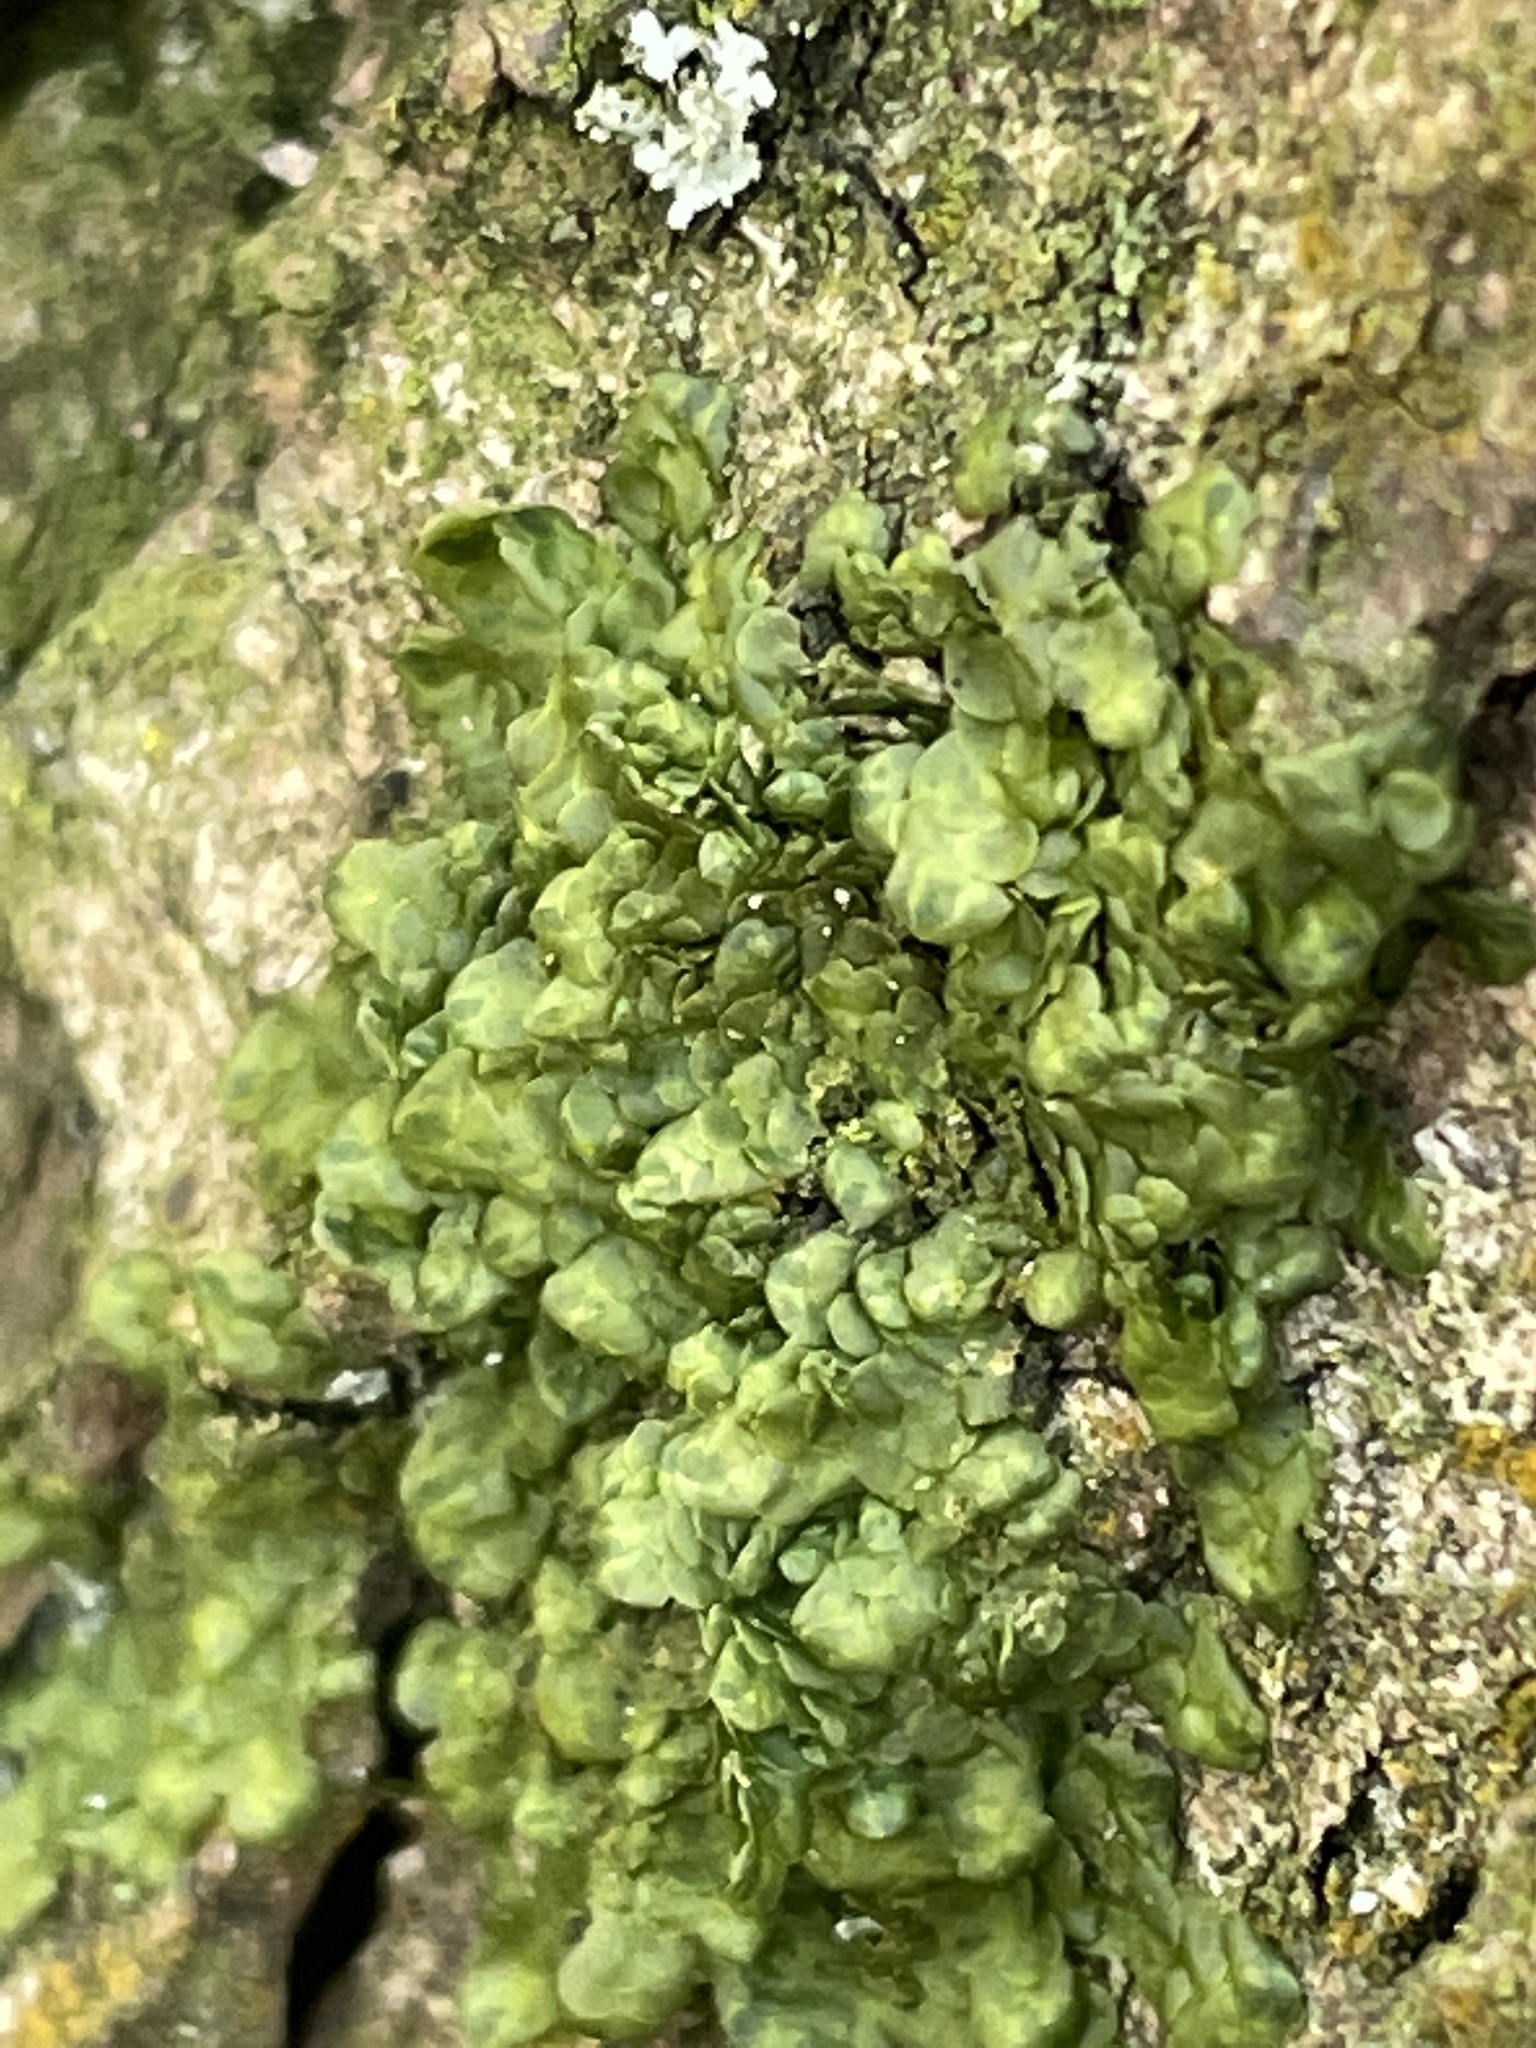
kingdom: Plantae
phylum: Marchantiophyta
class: Jungermanniopsida
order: Porellales
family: Radulaceae
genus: Radula
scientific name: Radula complanata
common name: Flat-leaved scalewort
